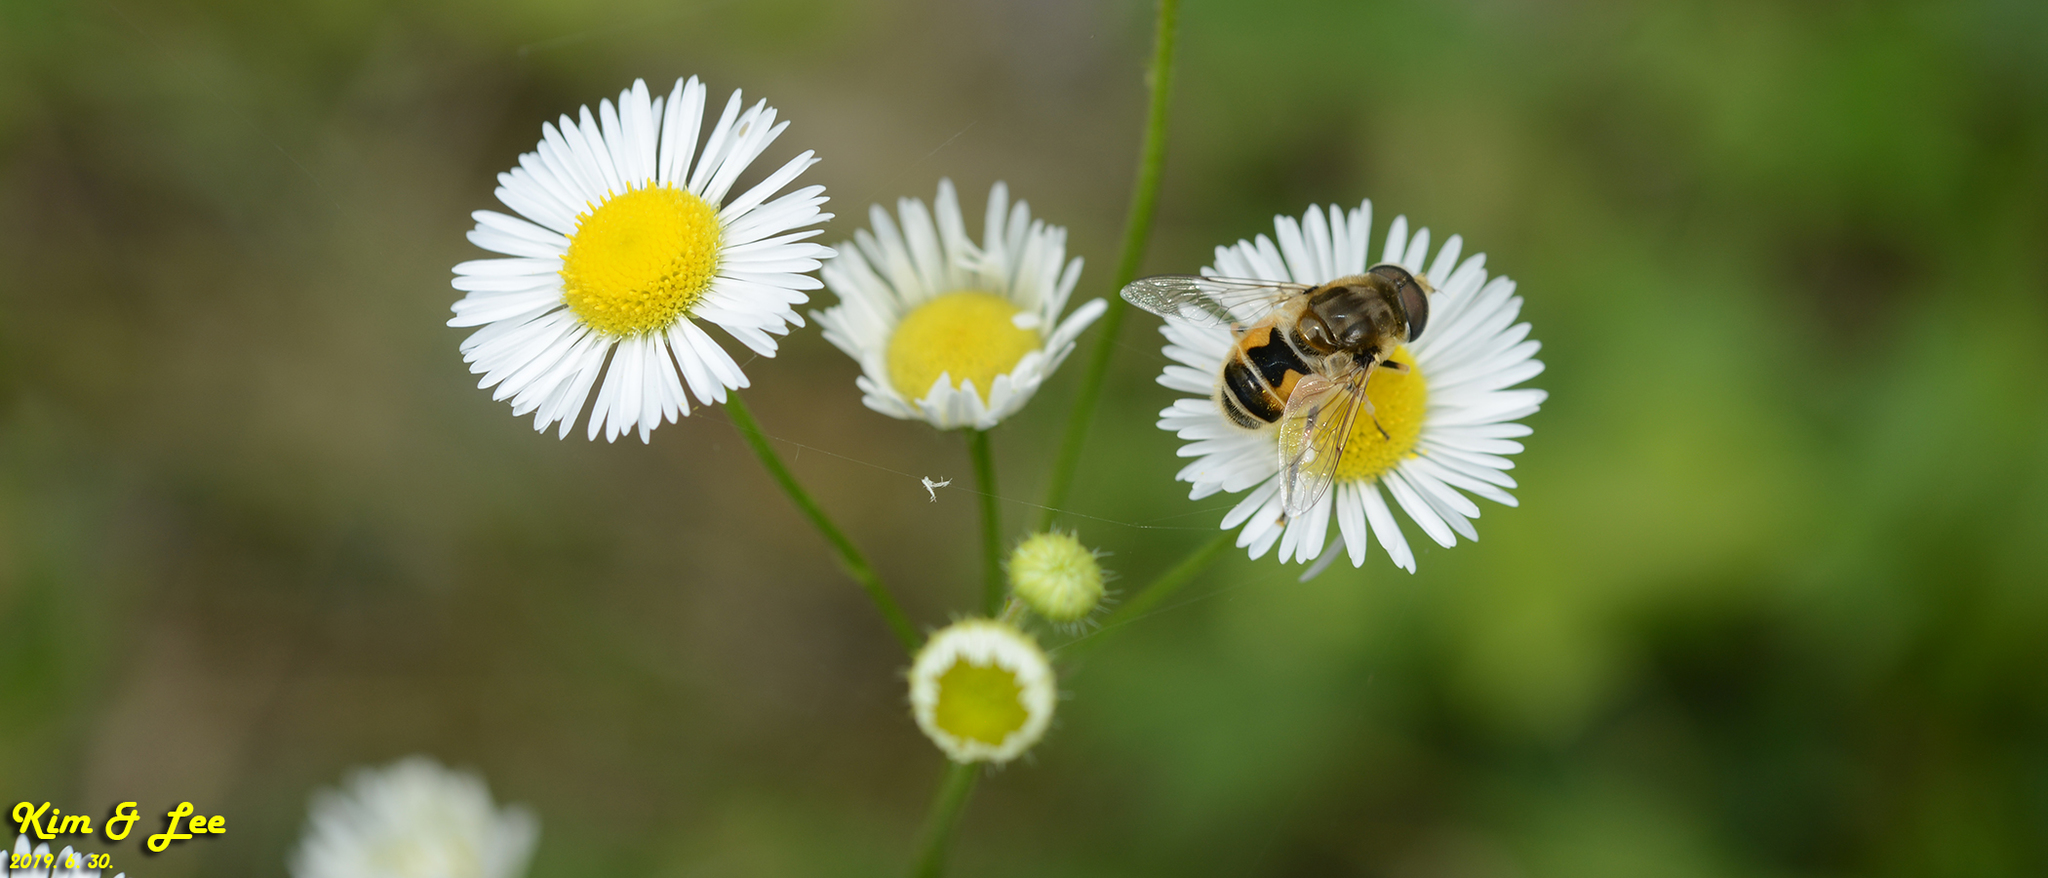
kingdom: Animalia
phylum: Arthropoda
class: Insecta
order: Diptera
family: Syrphidae
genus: Eristalis
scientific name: Eristalis arbustorum
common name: Hover fly
